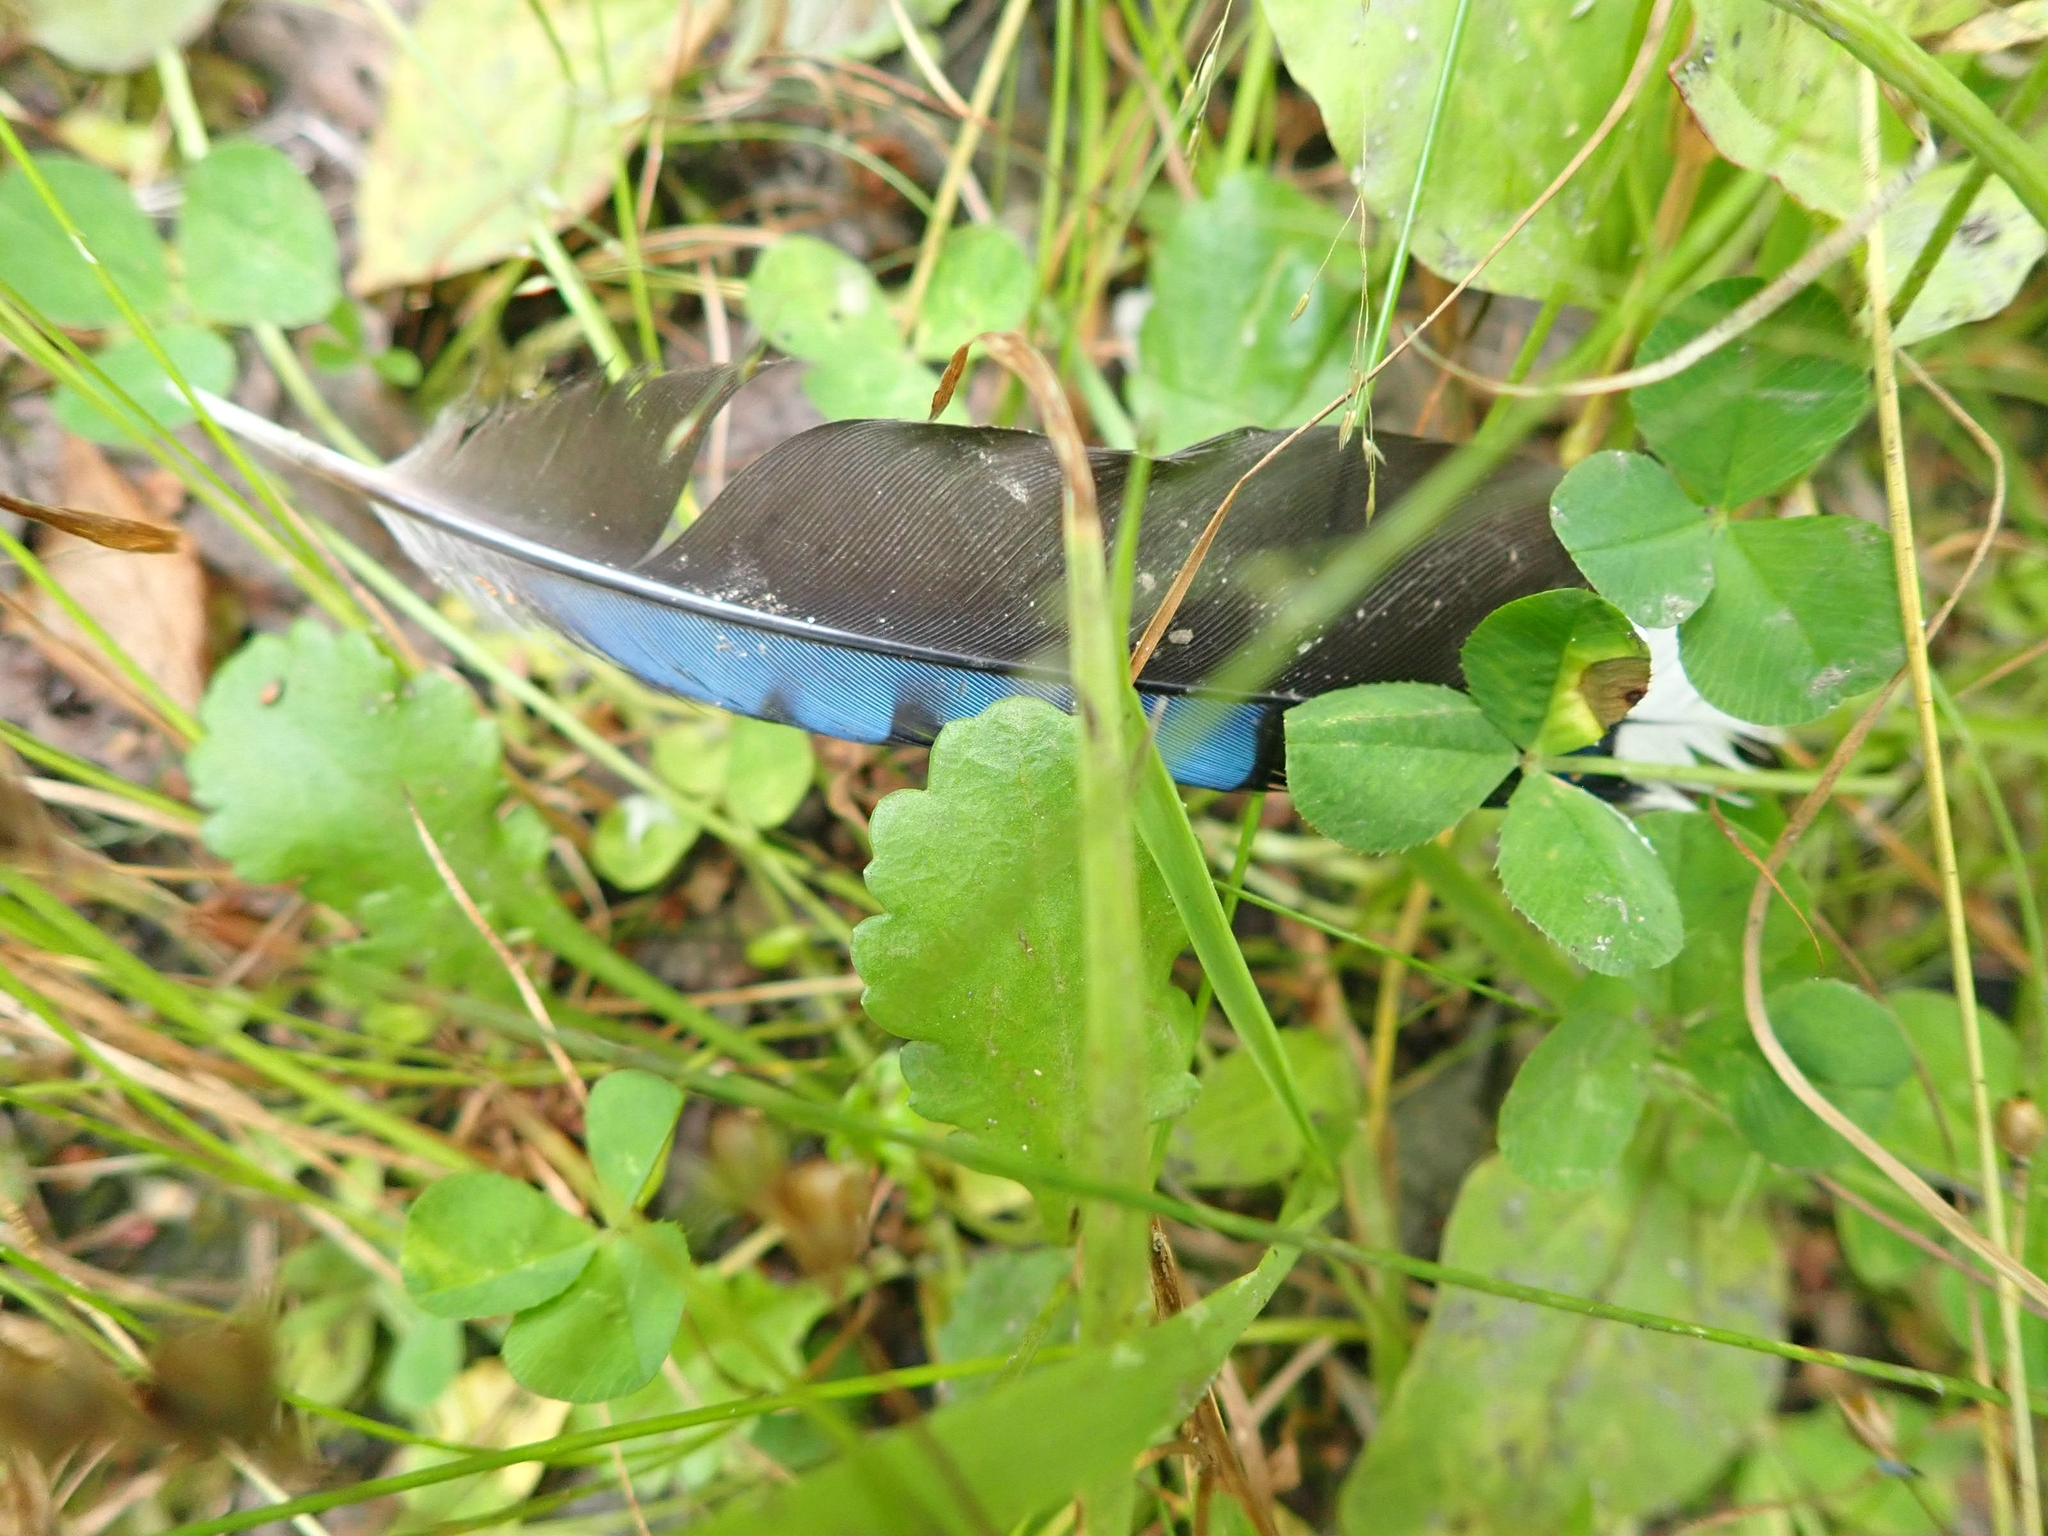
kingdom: Animalia
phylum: Chordata
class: Aves
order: Passeriformes
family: Corvidae
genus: Cyanocitta
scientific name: Cyanocitta cristata
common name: Blue jay
